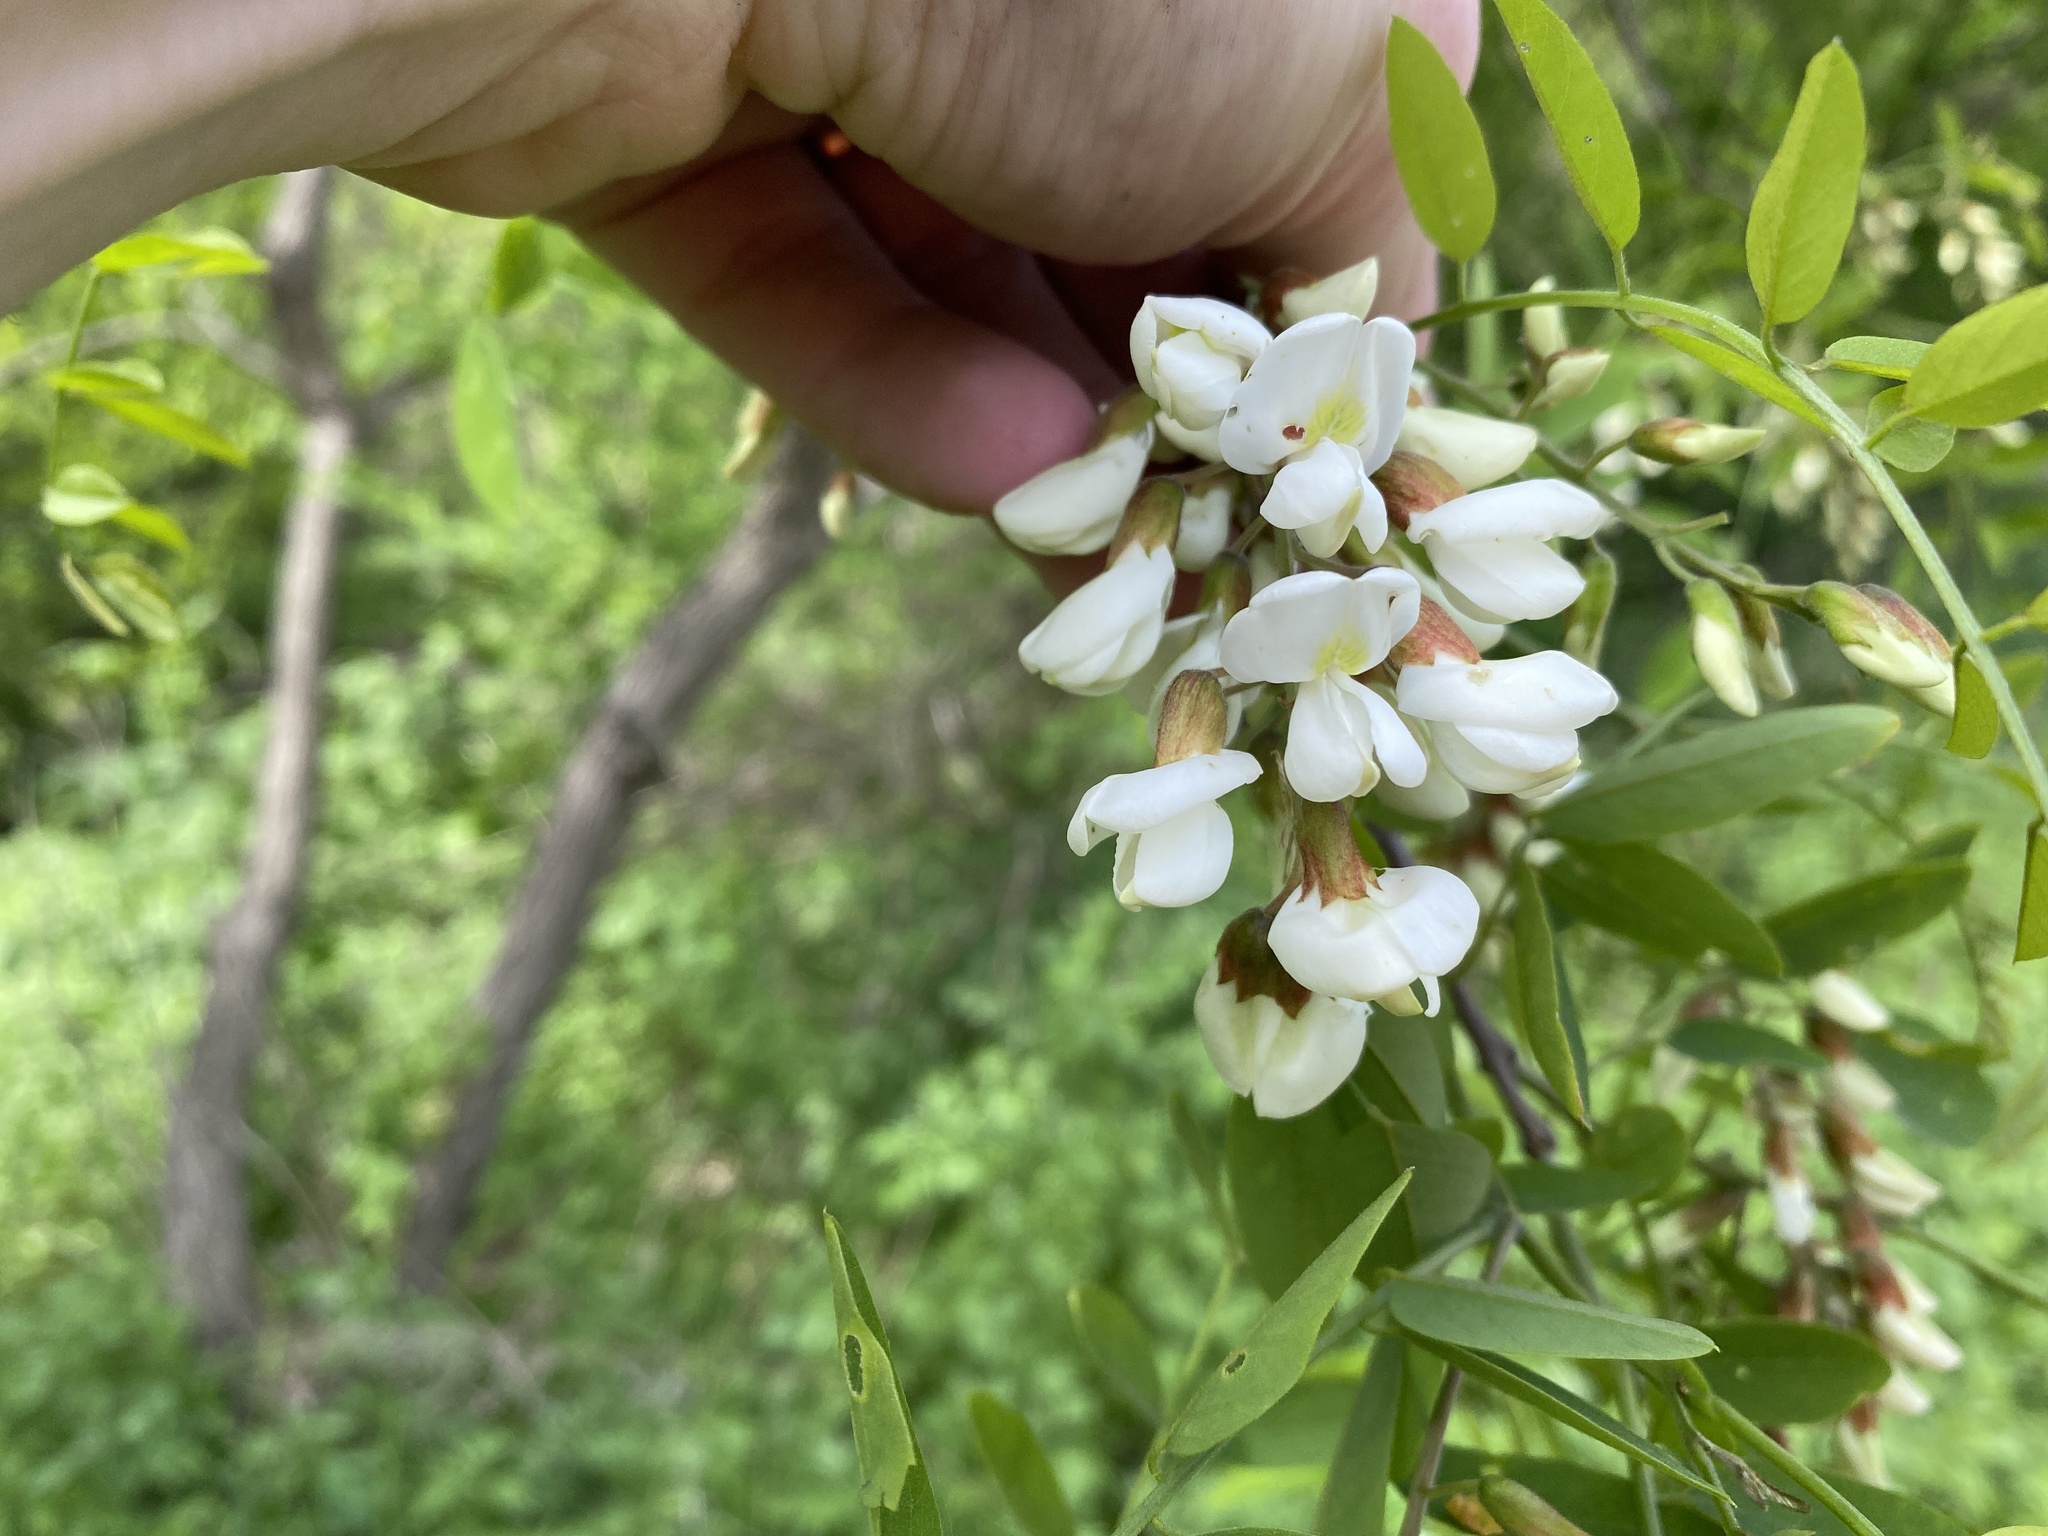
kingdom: Plantae
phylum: Tracheophyta
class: Magnoliopsida
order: Fabales
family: Fabaceae
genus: Robinia
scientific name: Robinia pseudoacacia
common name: Black locust
